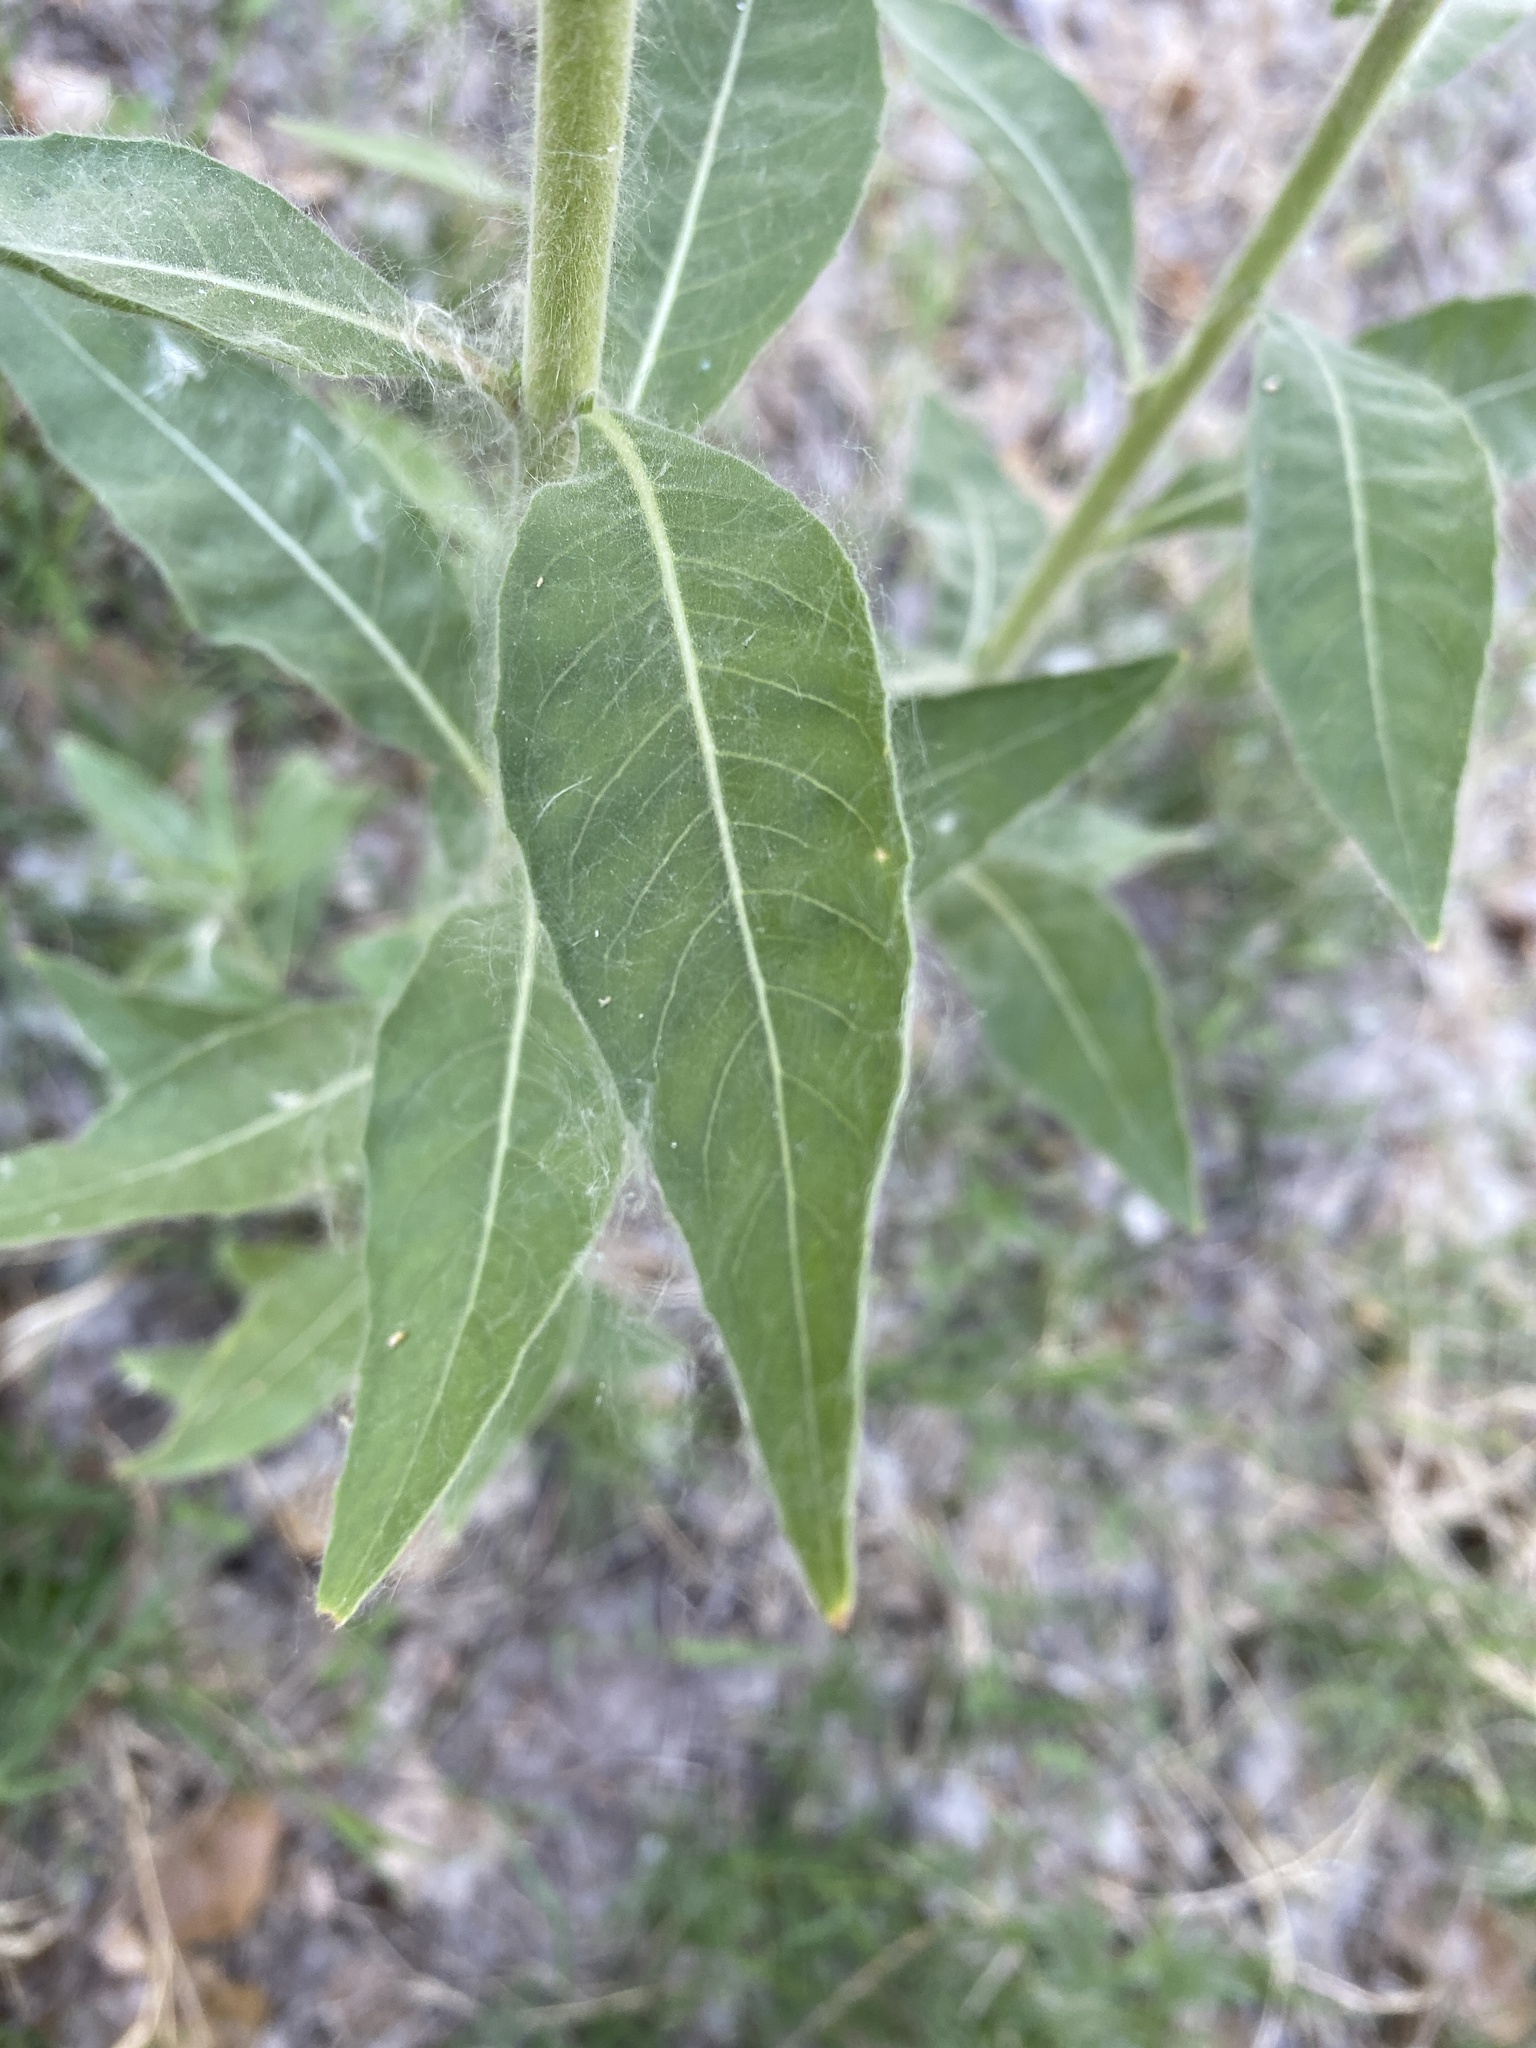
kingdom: Plantae
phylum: Tracheophyta
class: Magnoliopsida
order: Myrtales
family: Onagraceae
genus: Oenothera
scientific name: Oenothera curtiflora
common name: Velvetweed
